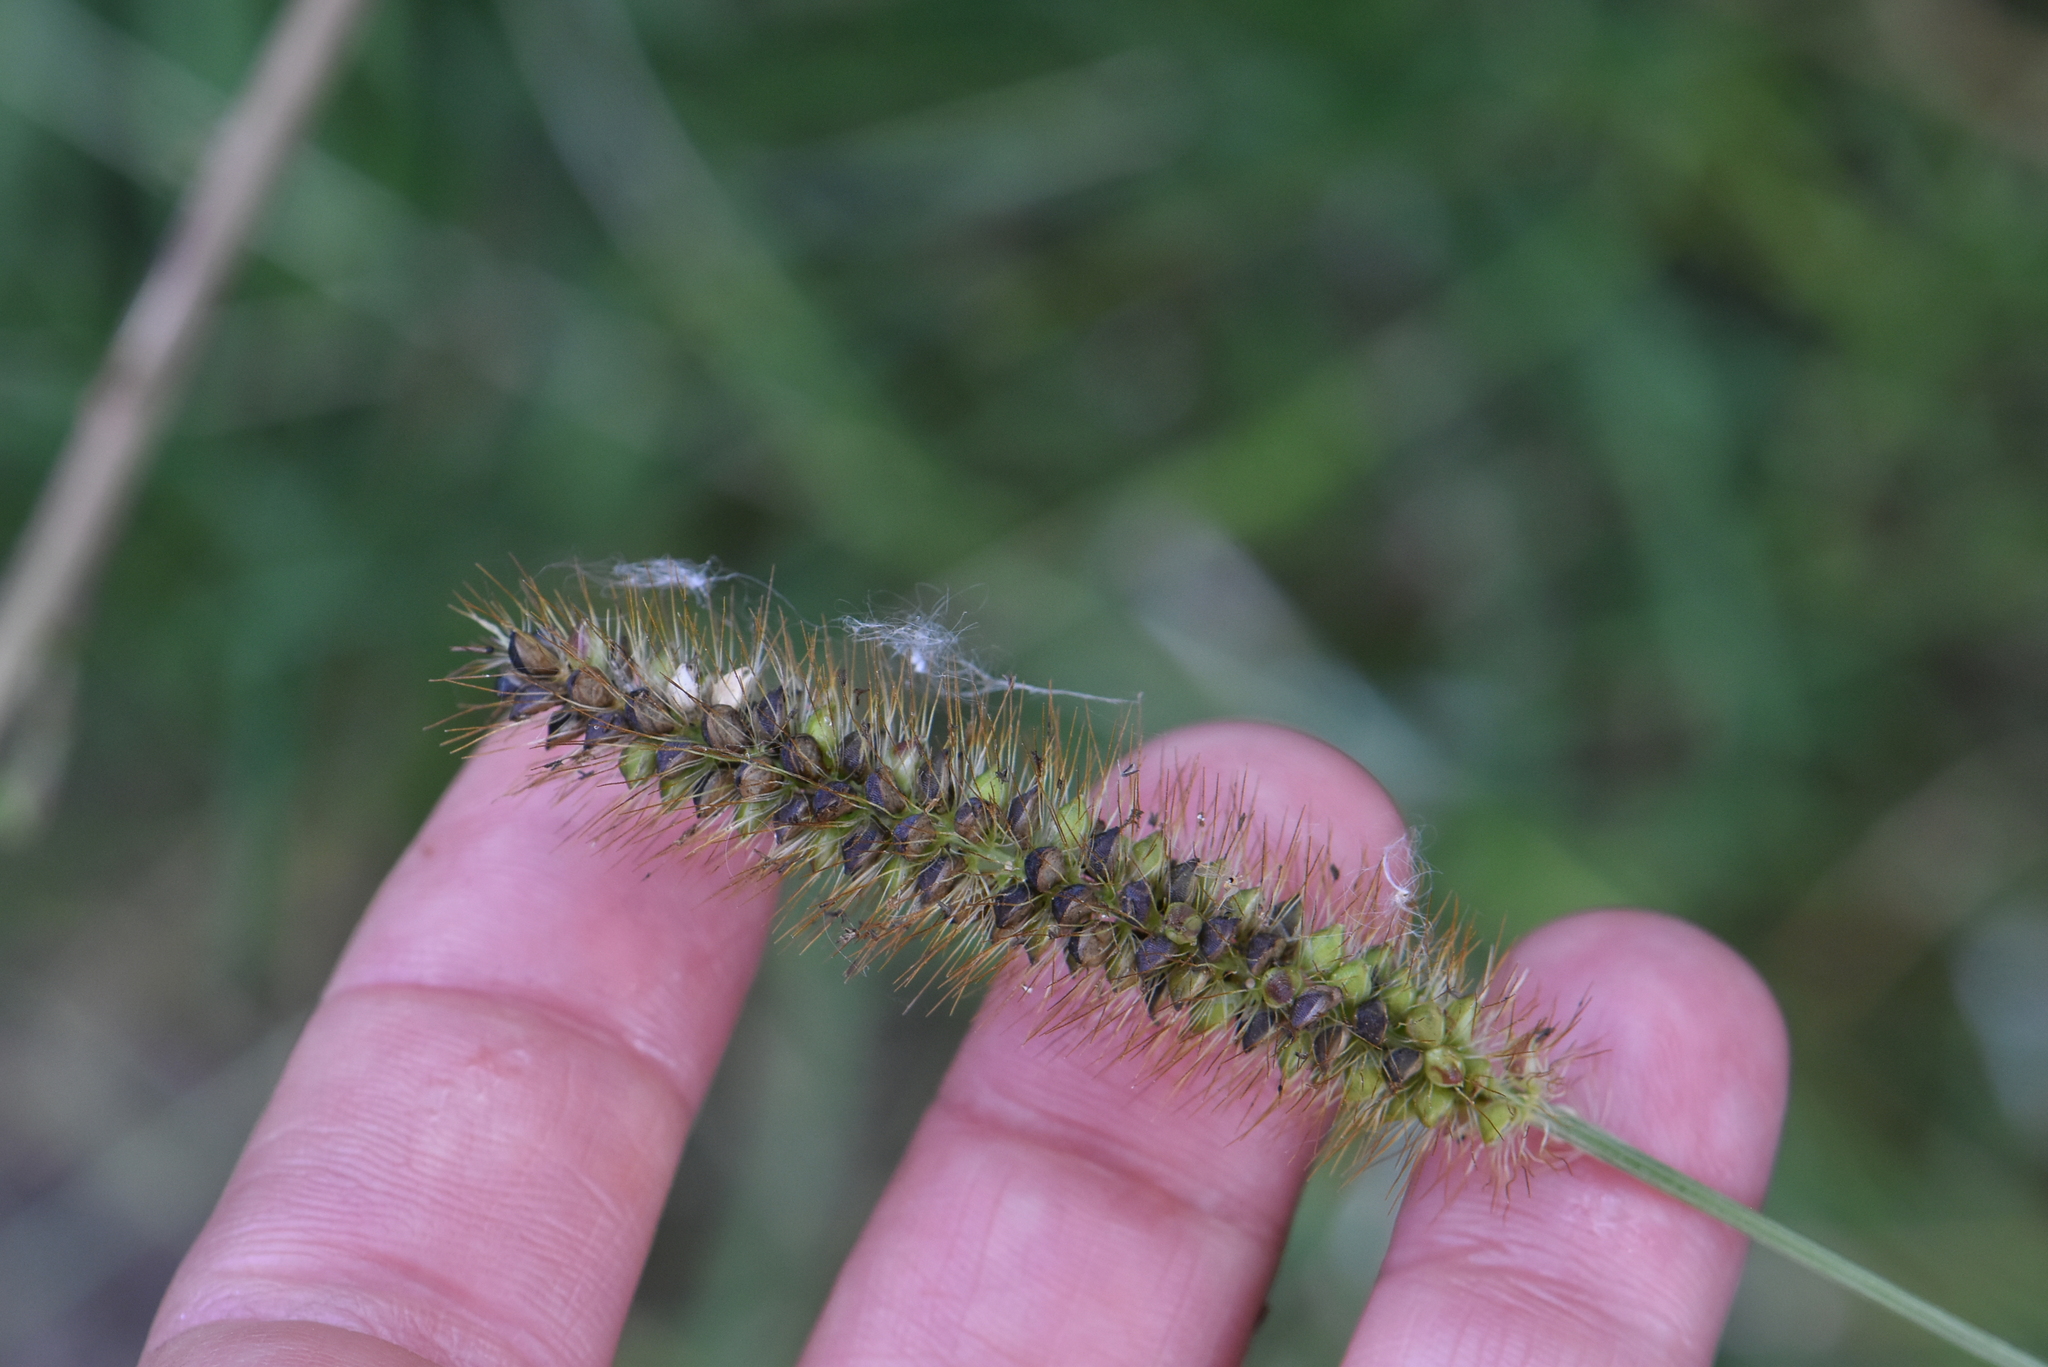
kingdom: Plantae
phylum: Tracheophyta
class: Liliopsida
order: Poales
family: Poaceae
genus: Setaria
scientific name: Setaria pumila
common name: Yellow bristle-grass
